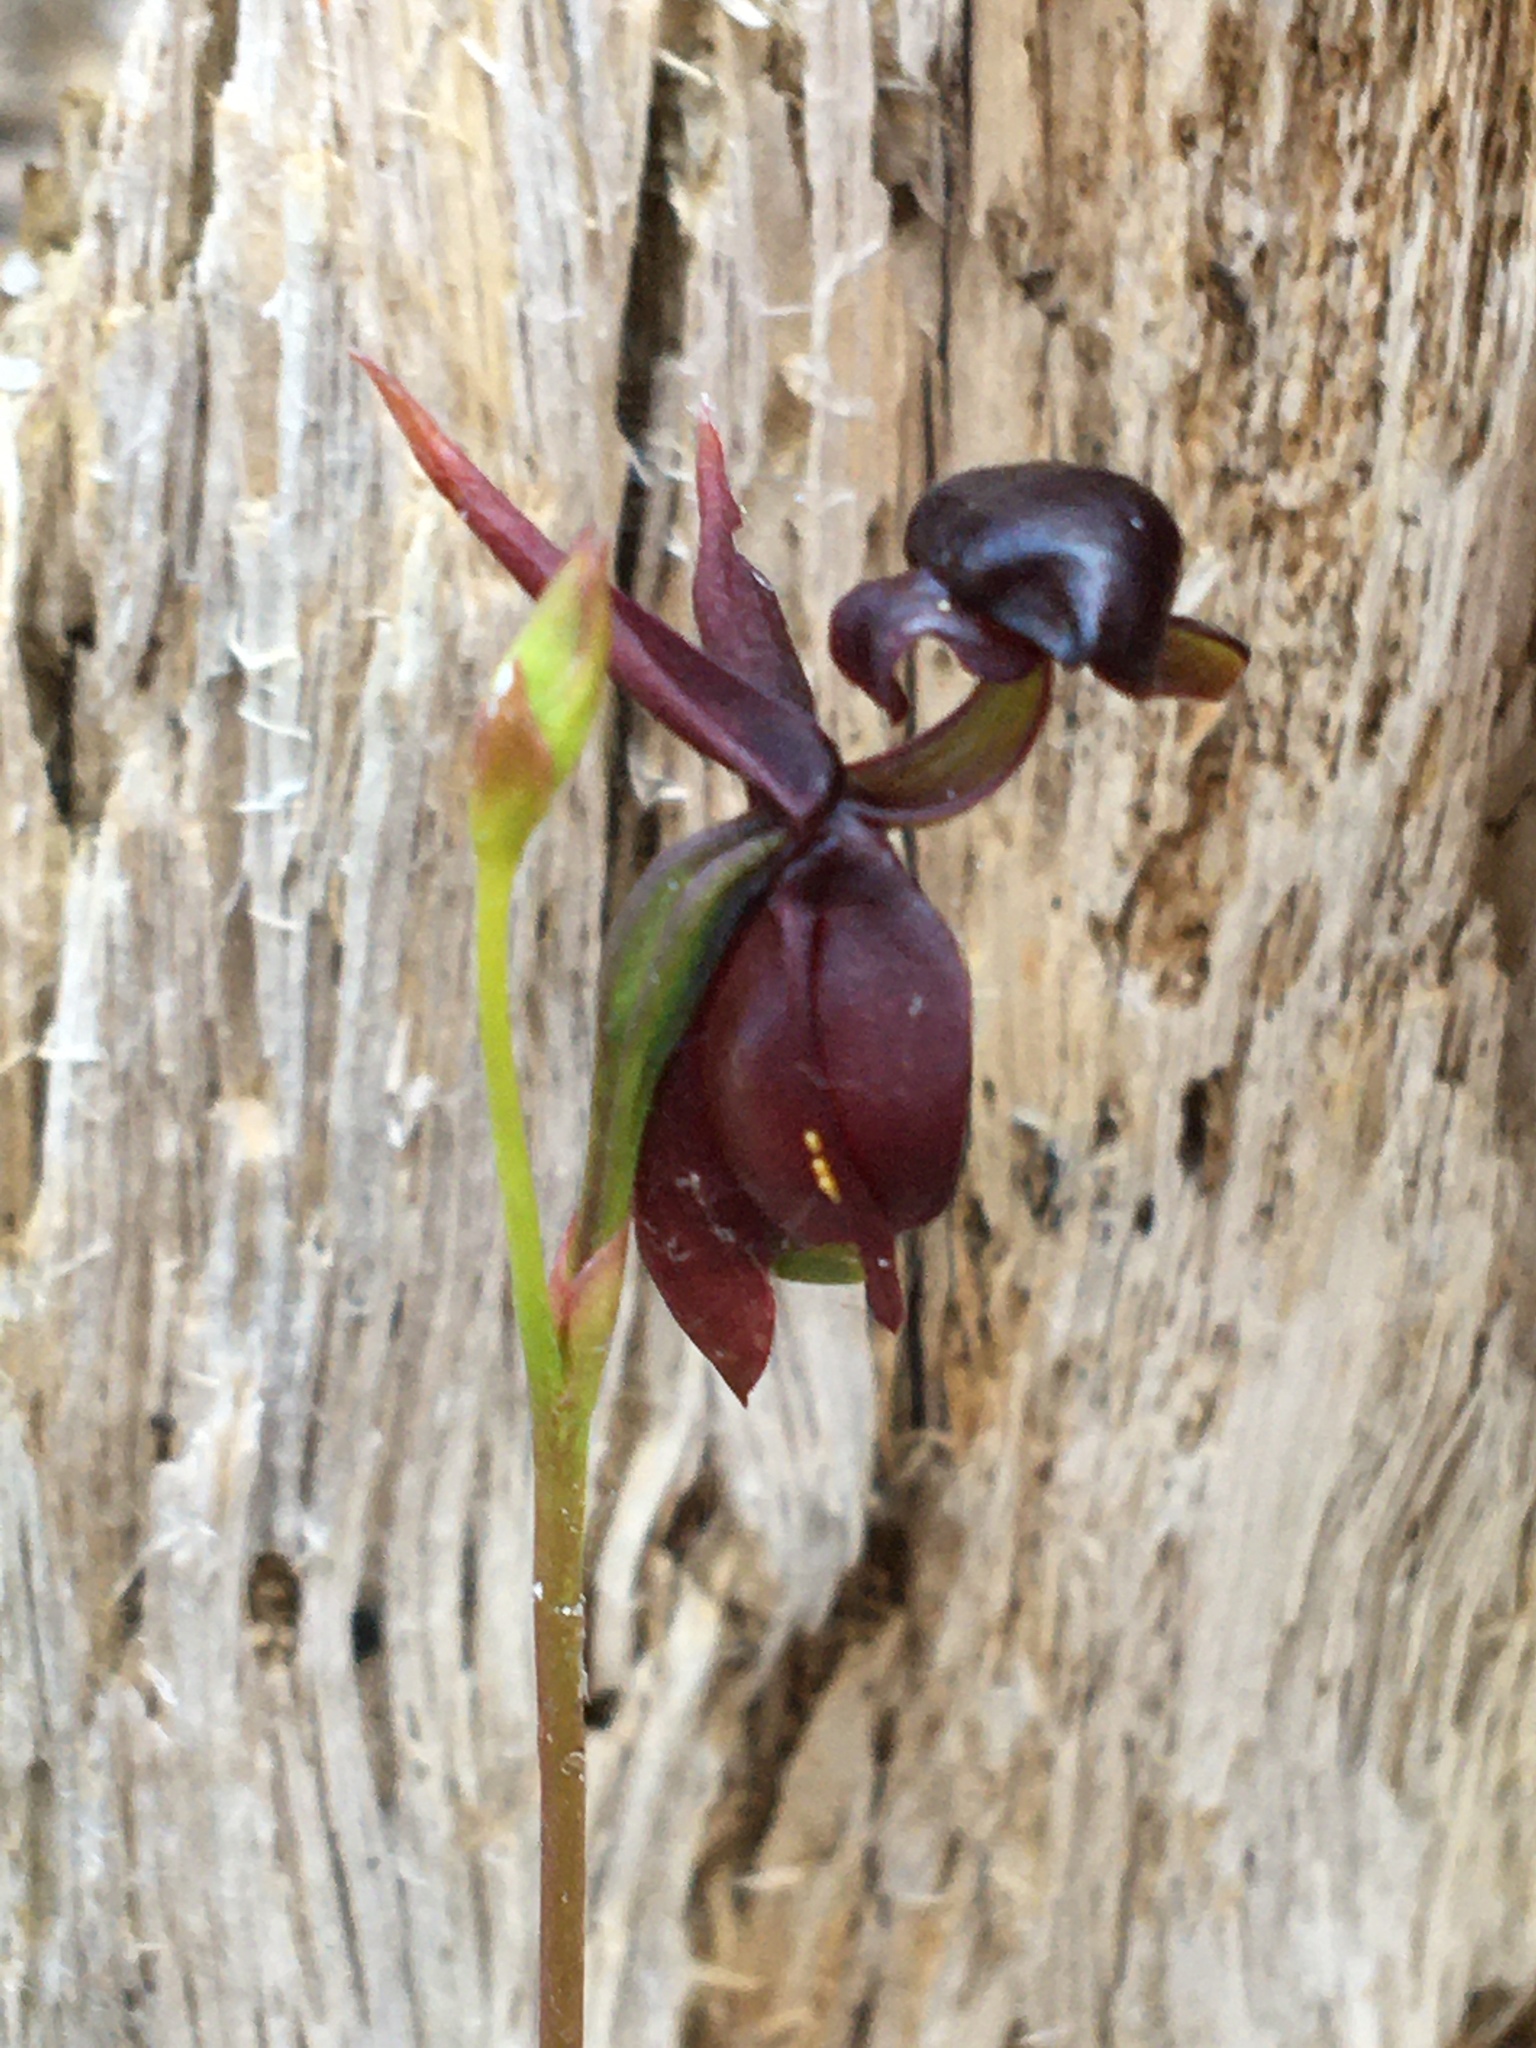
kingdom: Plantae
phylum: Tracheophyta
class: Liliopsida
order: Asparagales
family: Orchidaceae
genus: Caleana
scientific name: Caleana major
